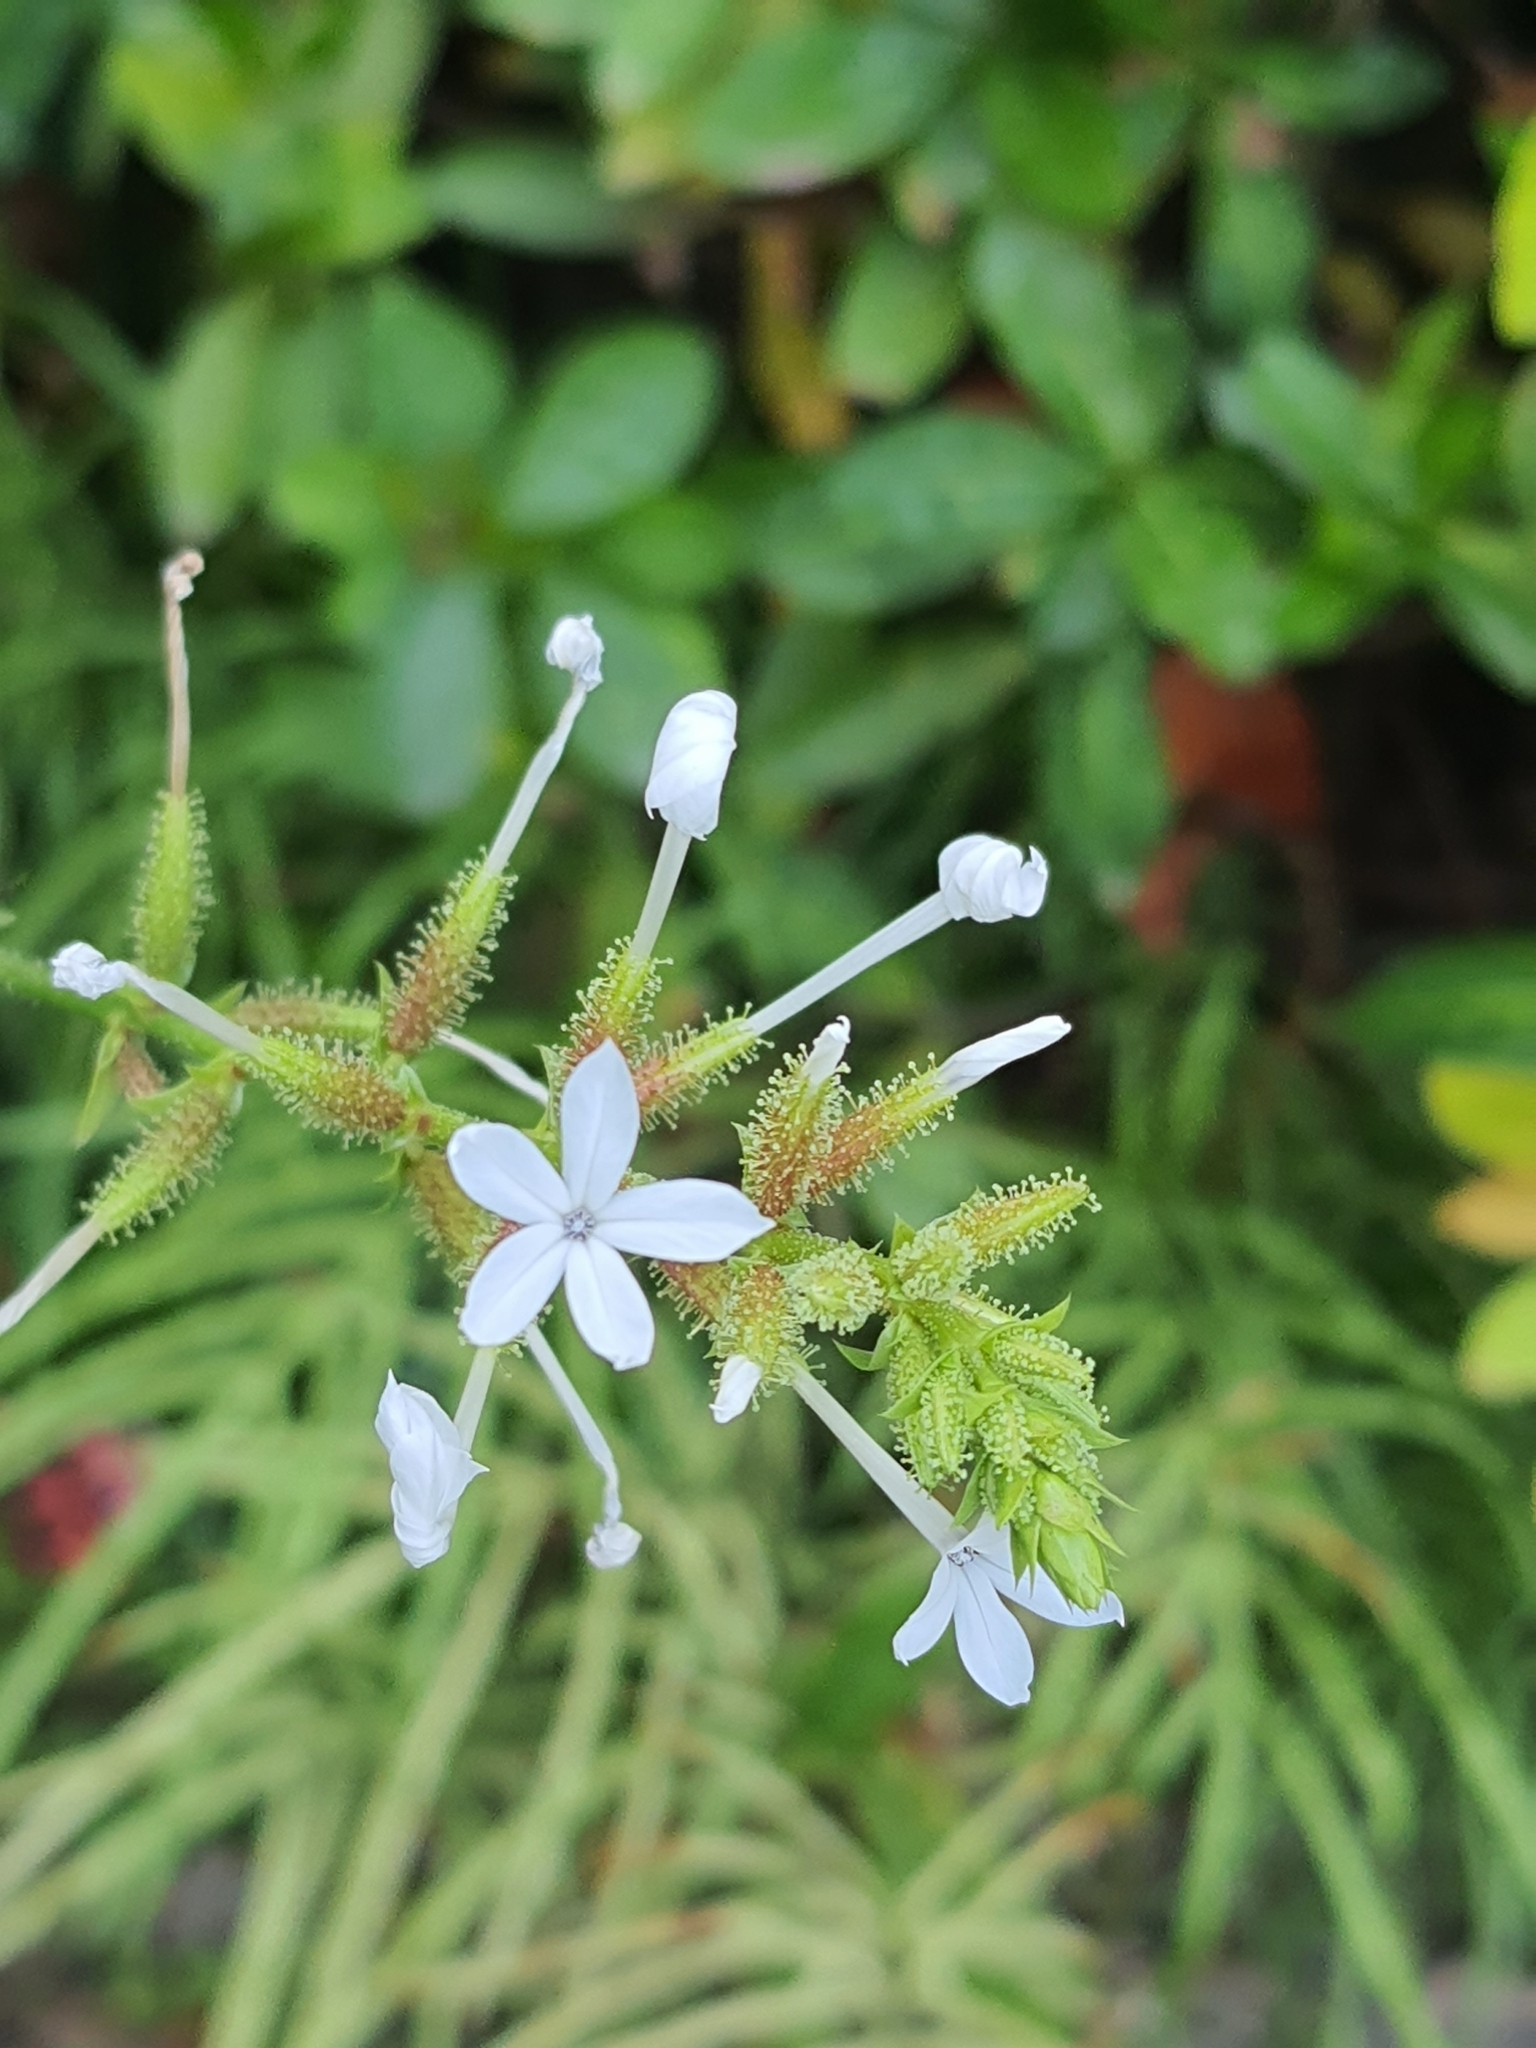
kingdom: Plantae
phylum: Tracheophyta
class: Magnoliopsida
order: Caryophyllales
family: Plumbaginaceae
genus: Plumbago
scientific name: Plumbago zeylanica
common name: Doctorbush
